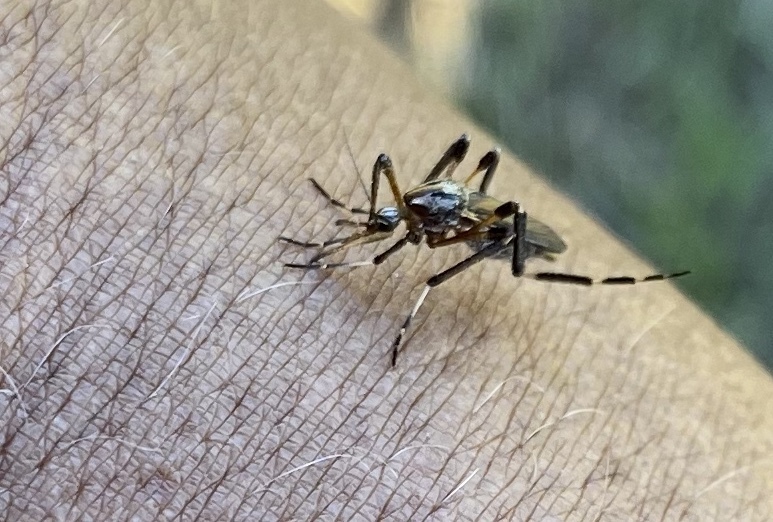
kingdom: Animalia
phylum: Arthropoda
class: Insecta
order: Diptera
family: Culicidae
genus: Psorophora
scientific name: Psorophora ciliata
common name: Gallinipper
